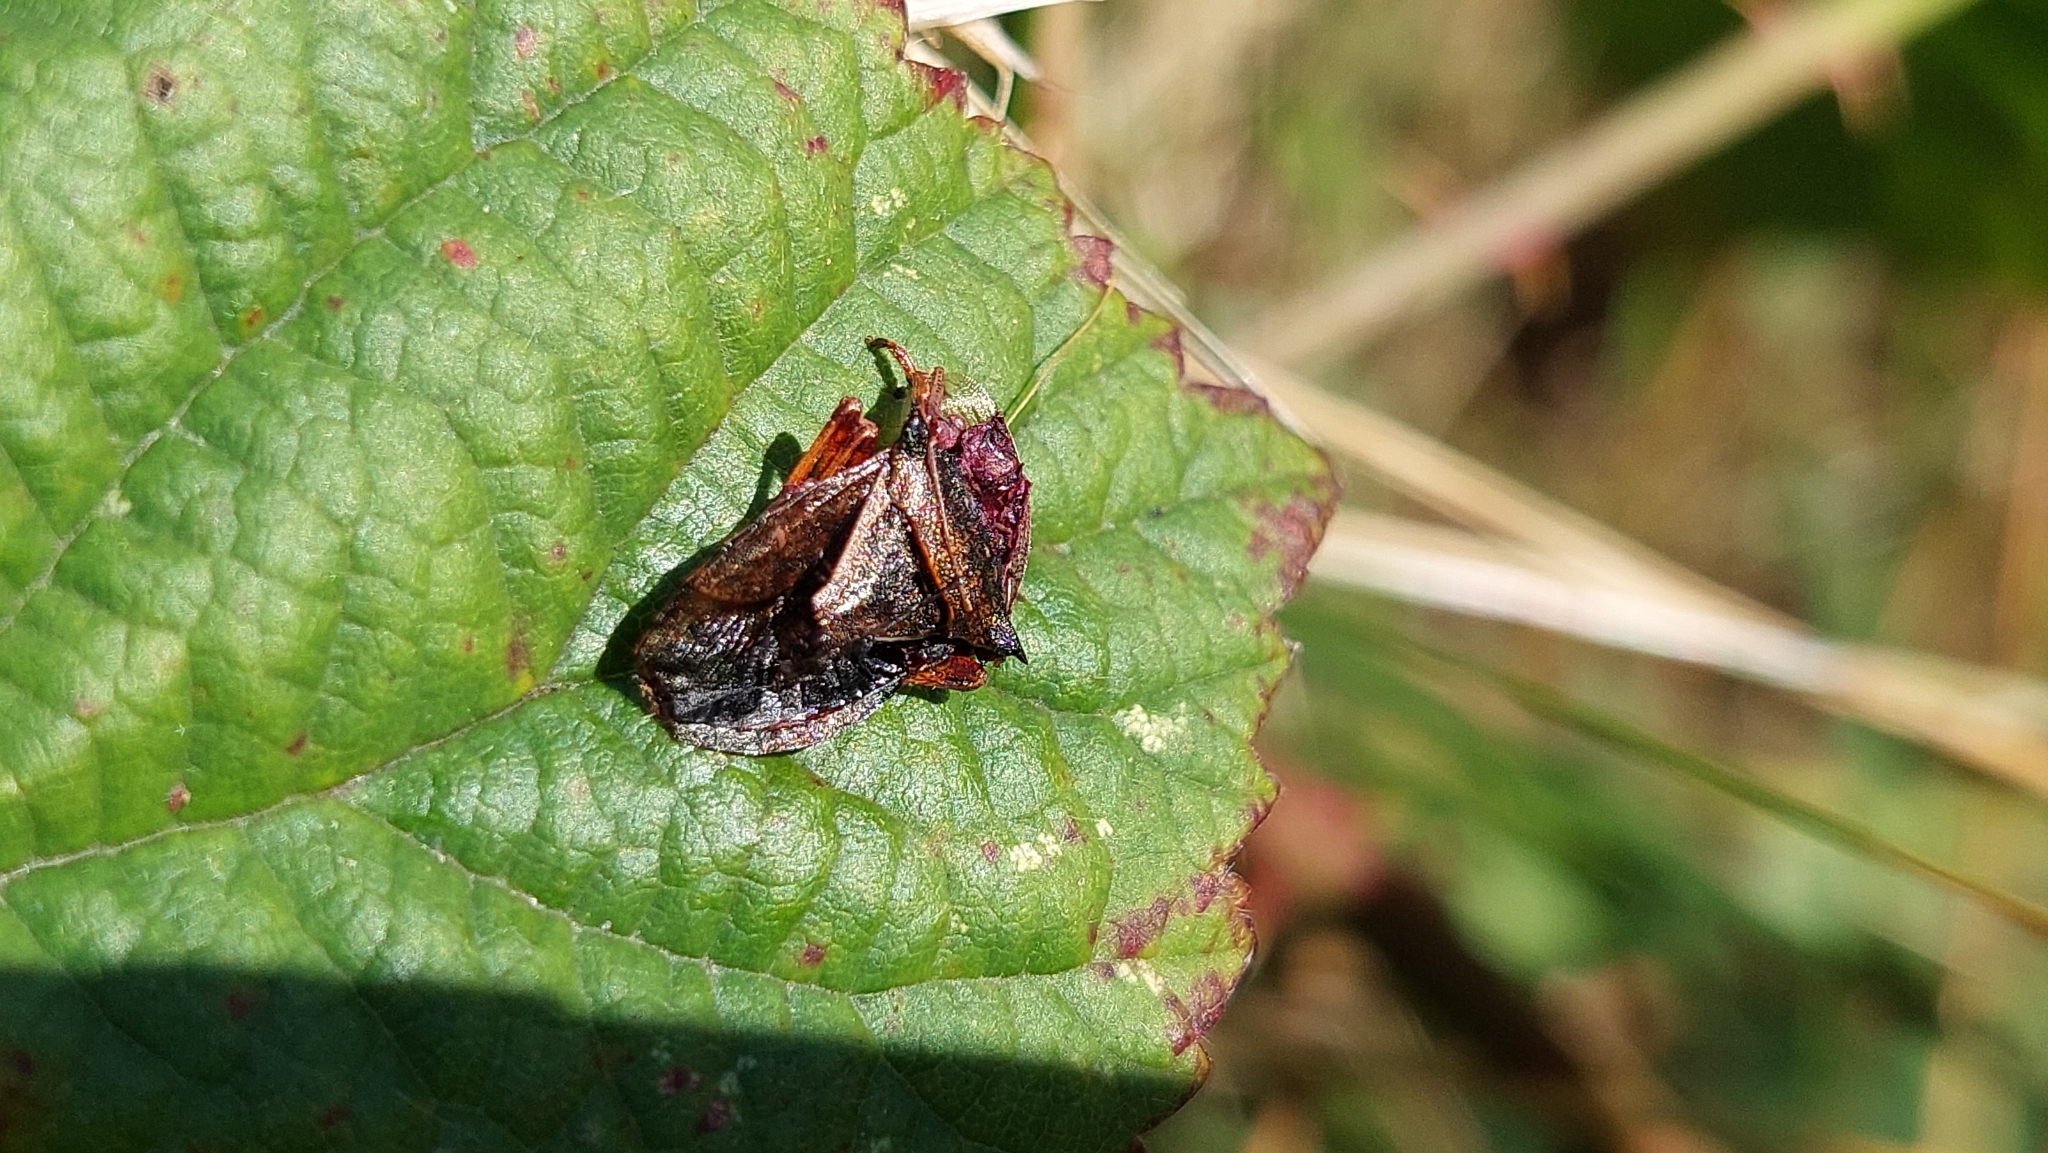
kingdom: Animalia
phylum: Arthropoda
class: Insecta
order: Hemiptera
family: Pentatomidae
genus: Picromerus
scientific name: Picromerus bidens
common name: Spiked shieldbug
